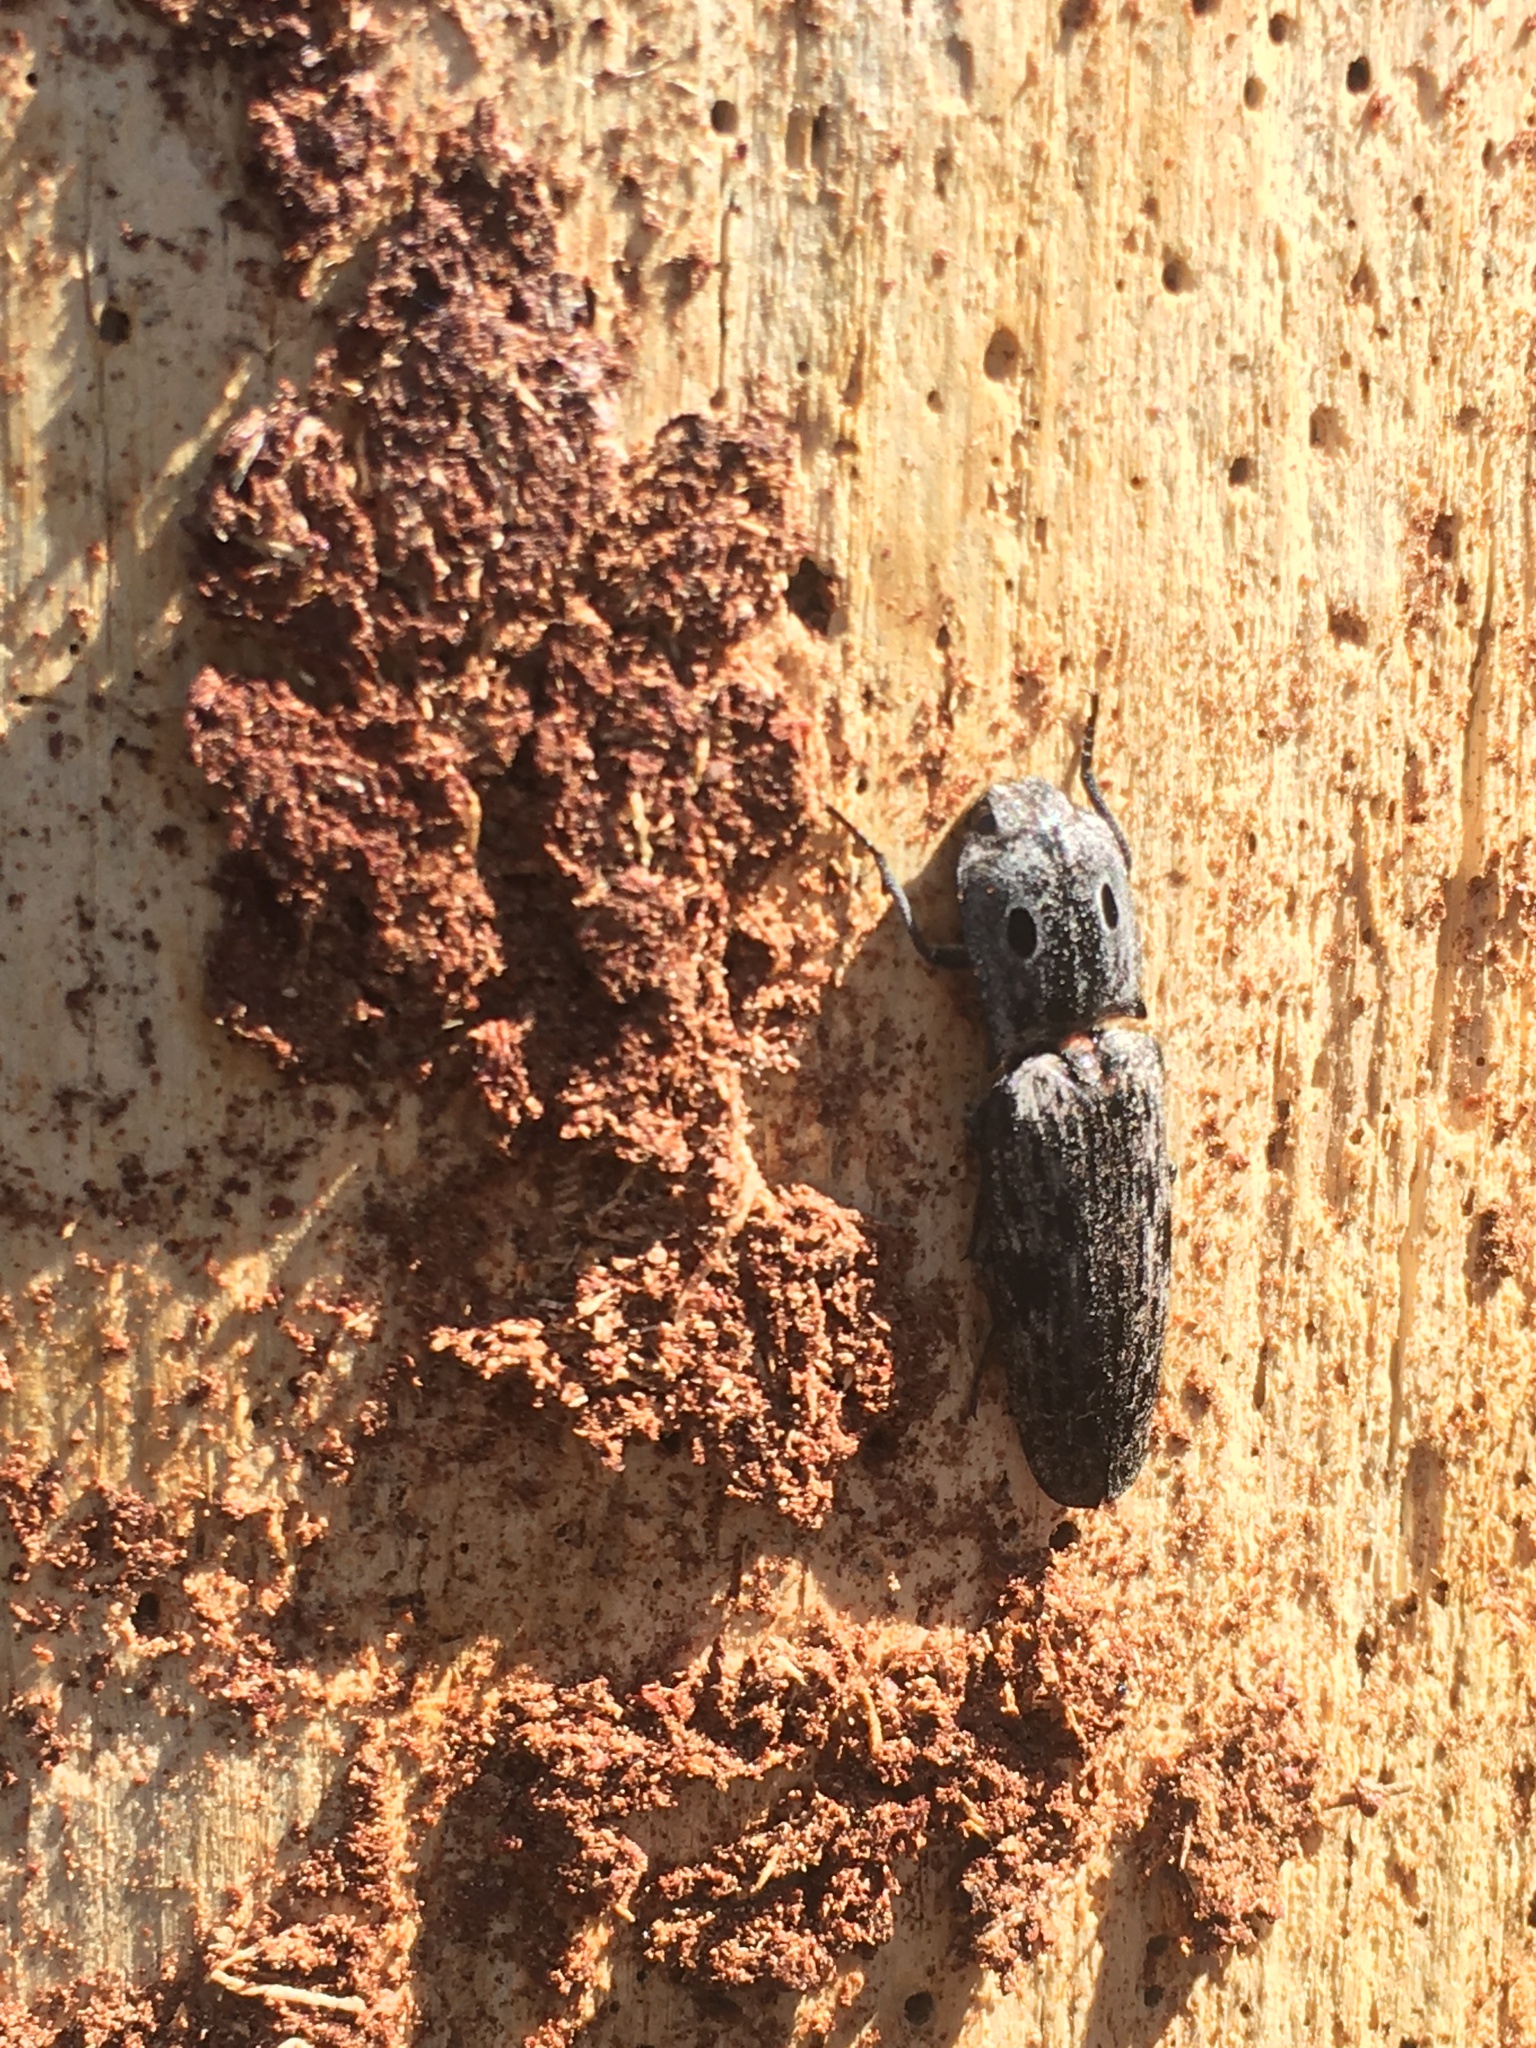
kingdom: Animalia
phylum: Arthropoda
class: Insecta
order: Coleoptera
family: Elateridae
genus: Alaus
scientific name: Alaus myops
